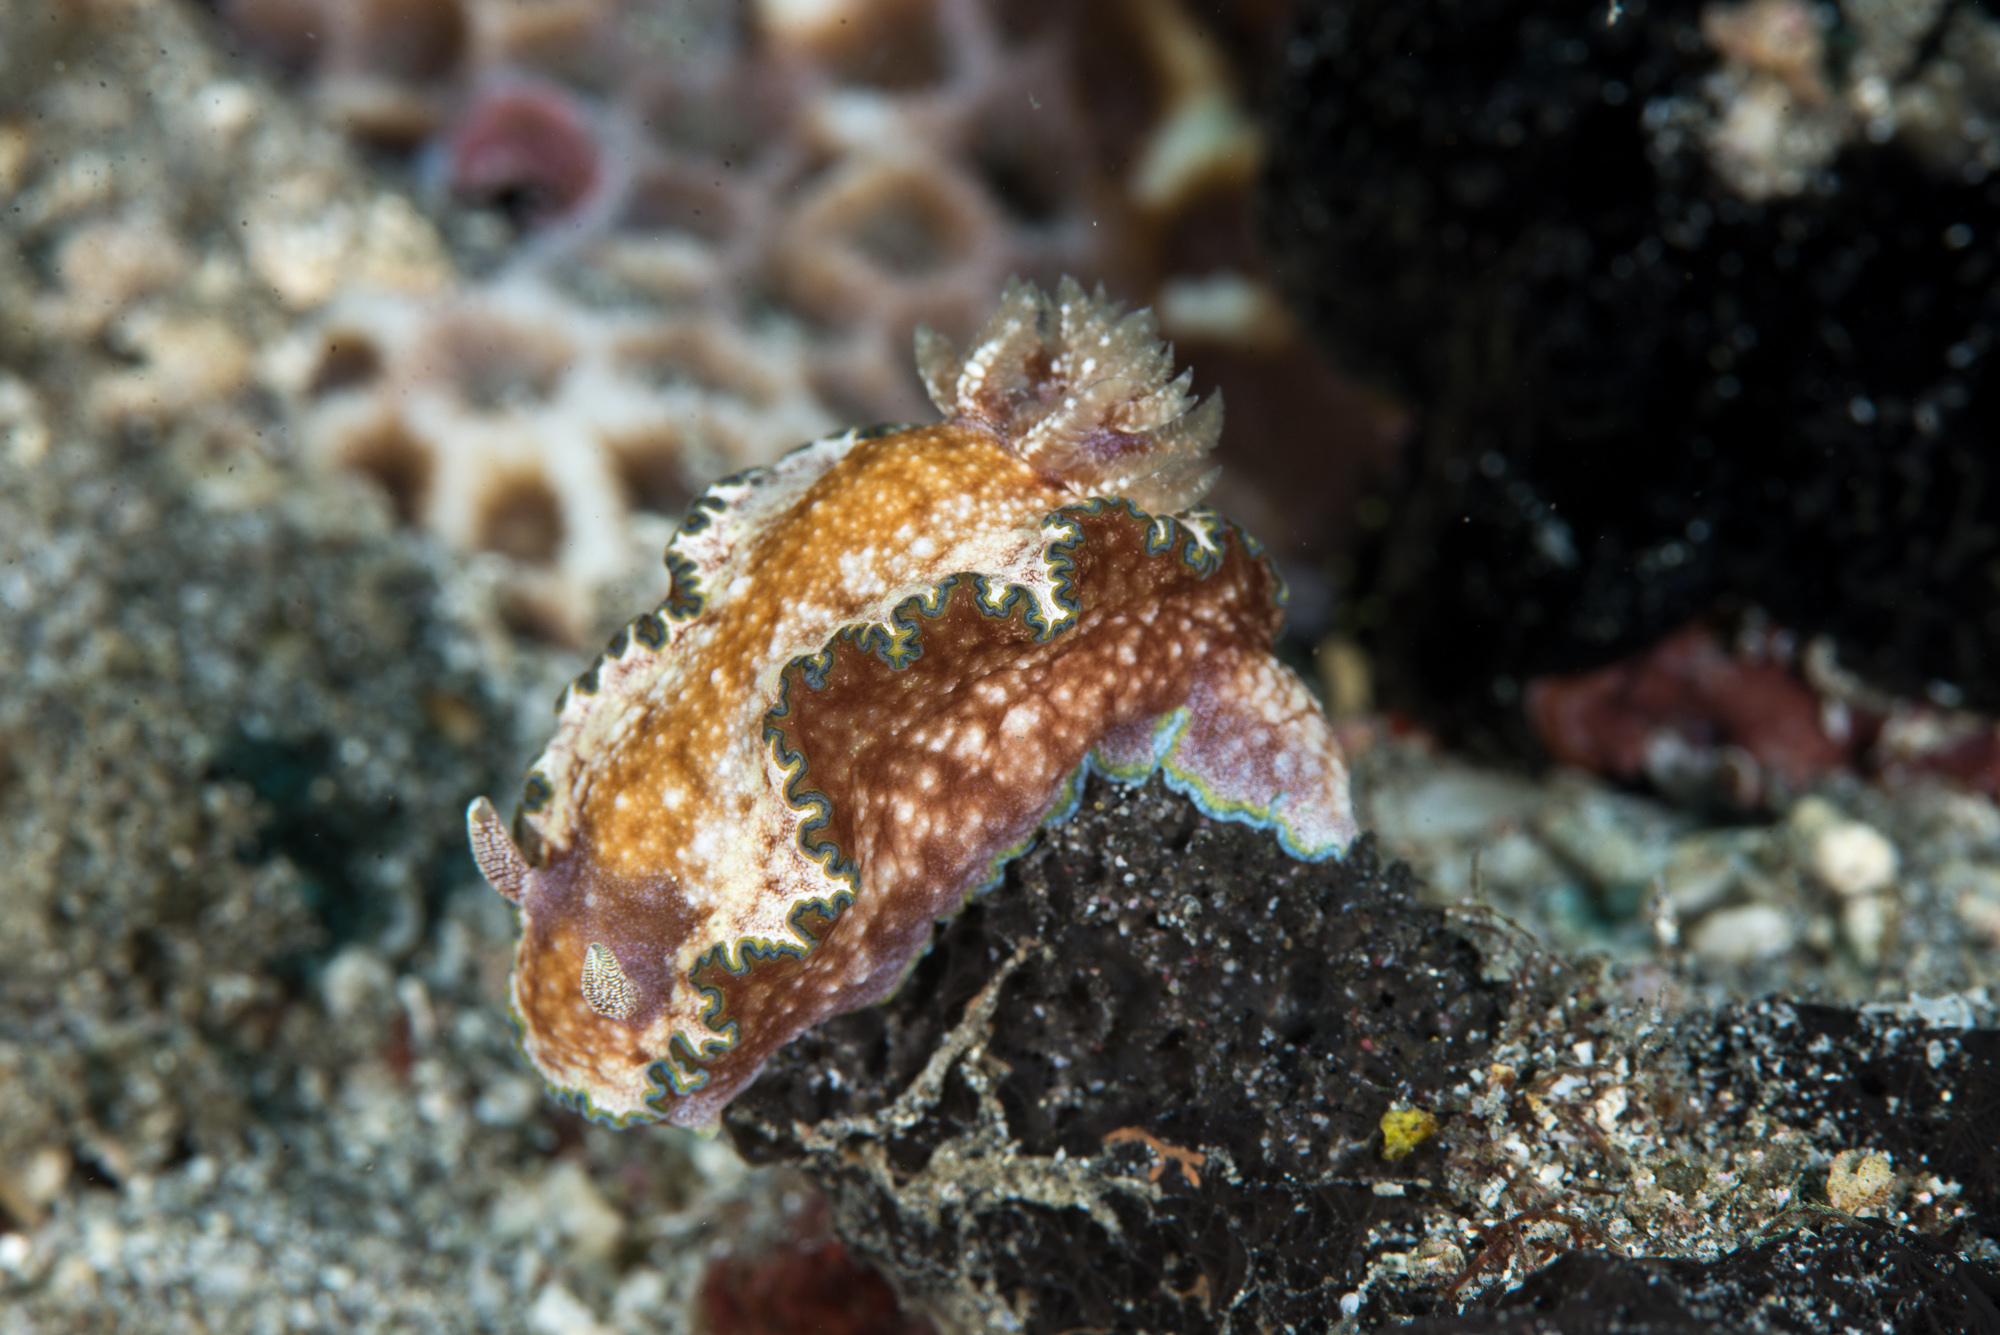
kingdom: Animalia
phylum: Mollusca
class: Gastropoda
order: Nudibranchia
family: Chromodorididae
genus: Glossodoris
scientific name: Glossodoris cincta
